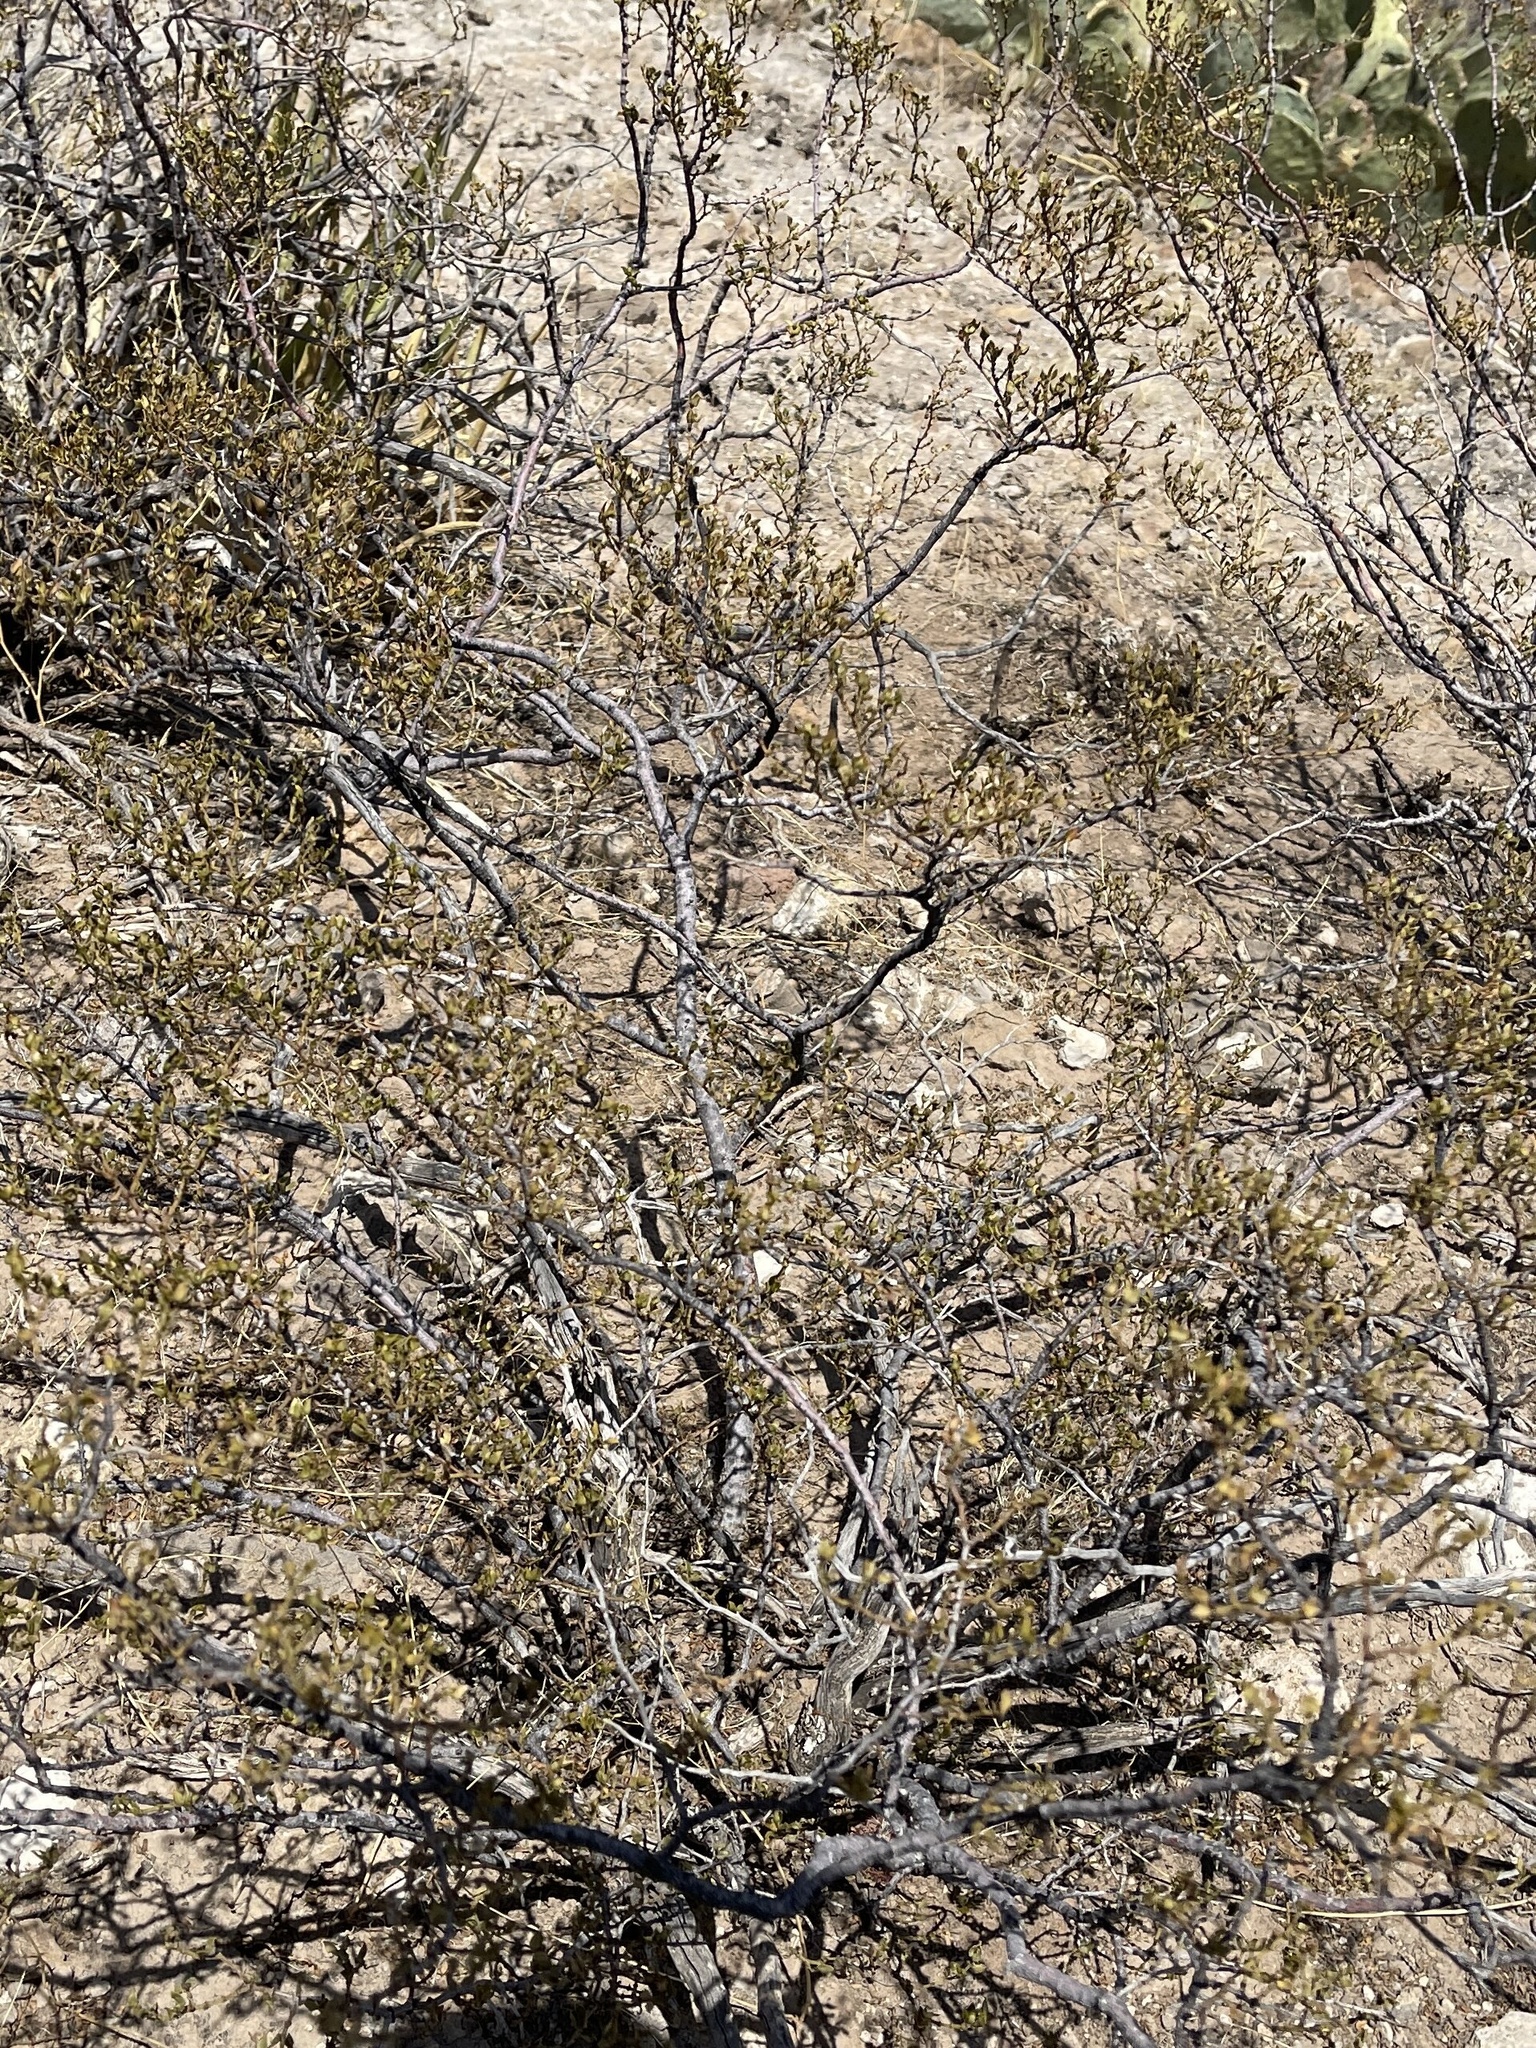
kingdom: Plantae
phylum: Tracheophyta
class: Magnoliopsida
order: Zygophyllales
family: Zygophyllaceae
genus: Larrea
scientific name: Larrea tridentata
